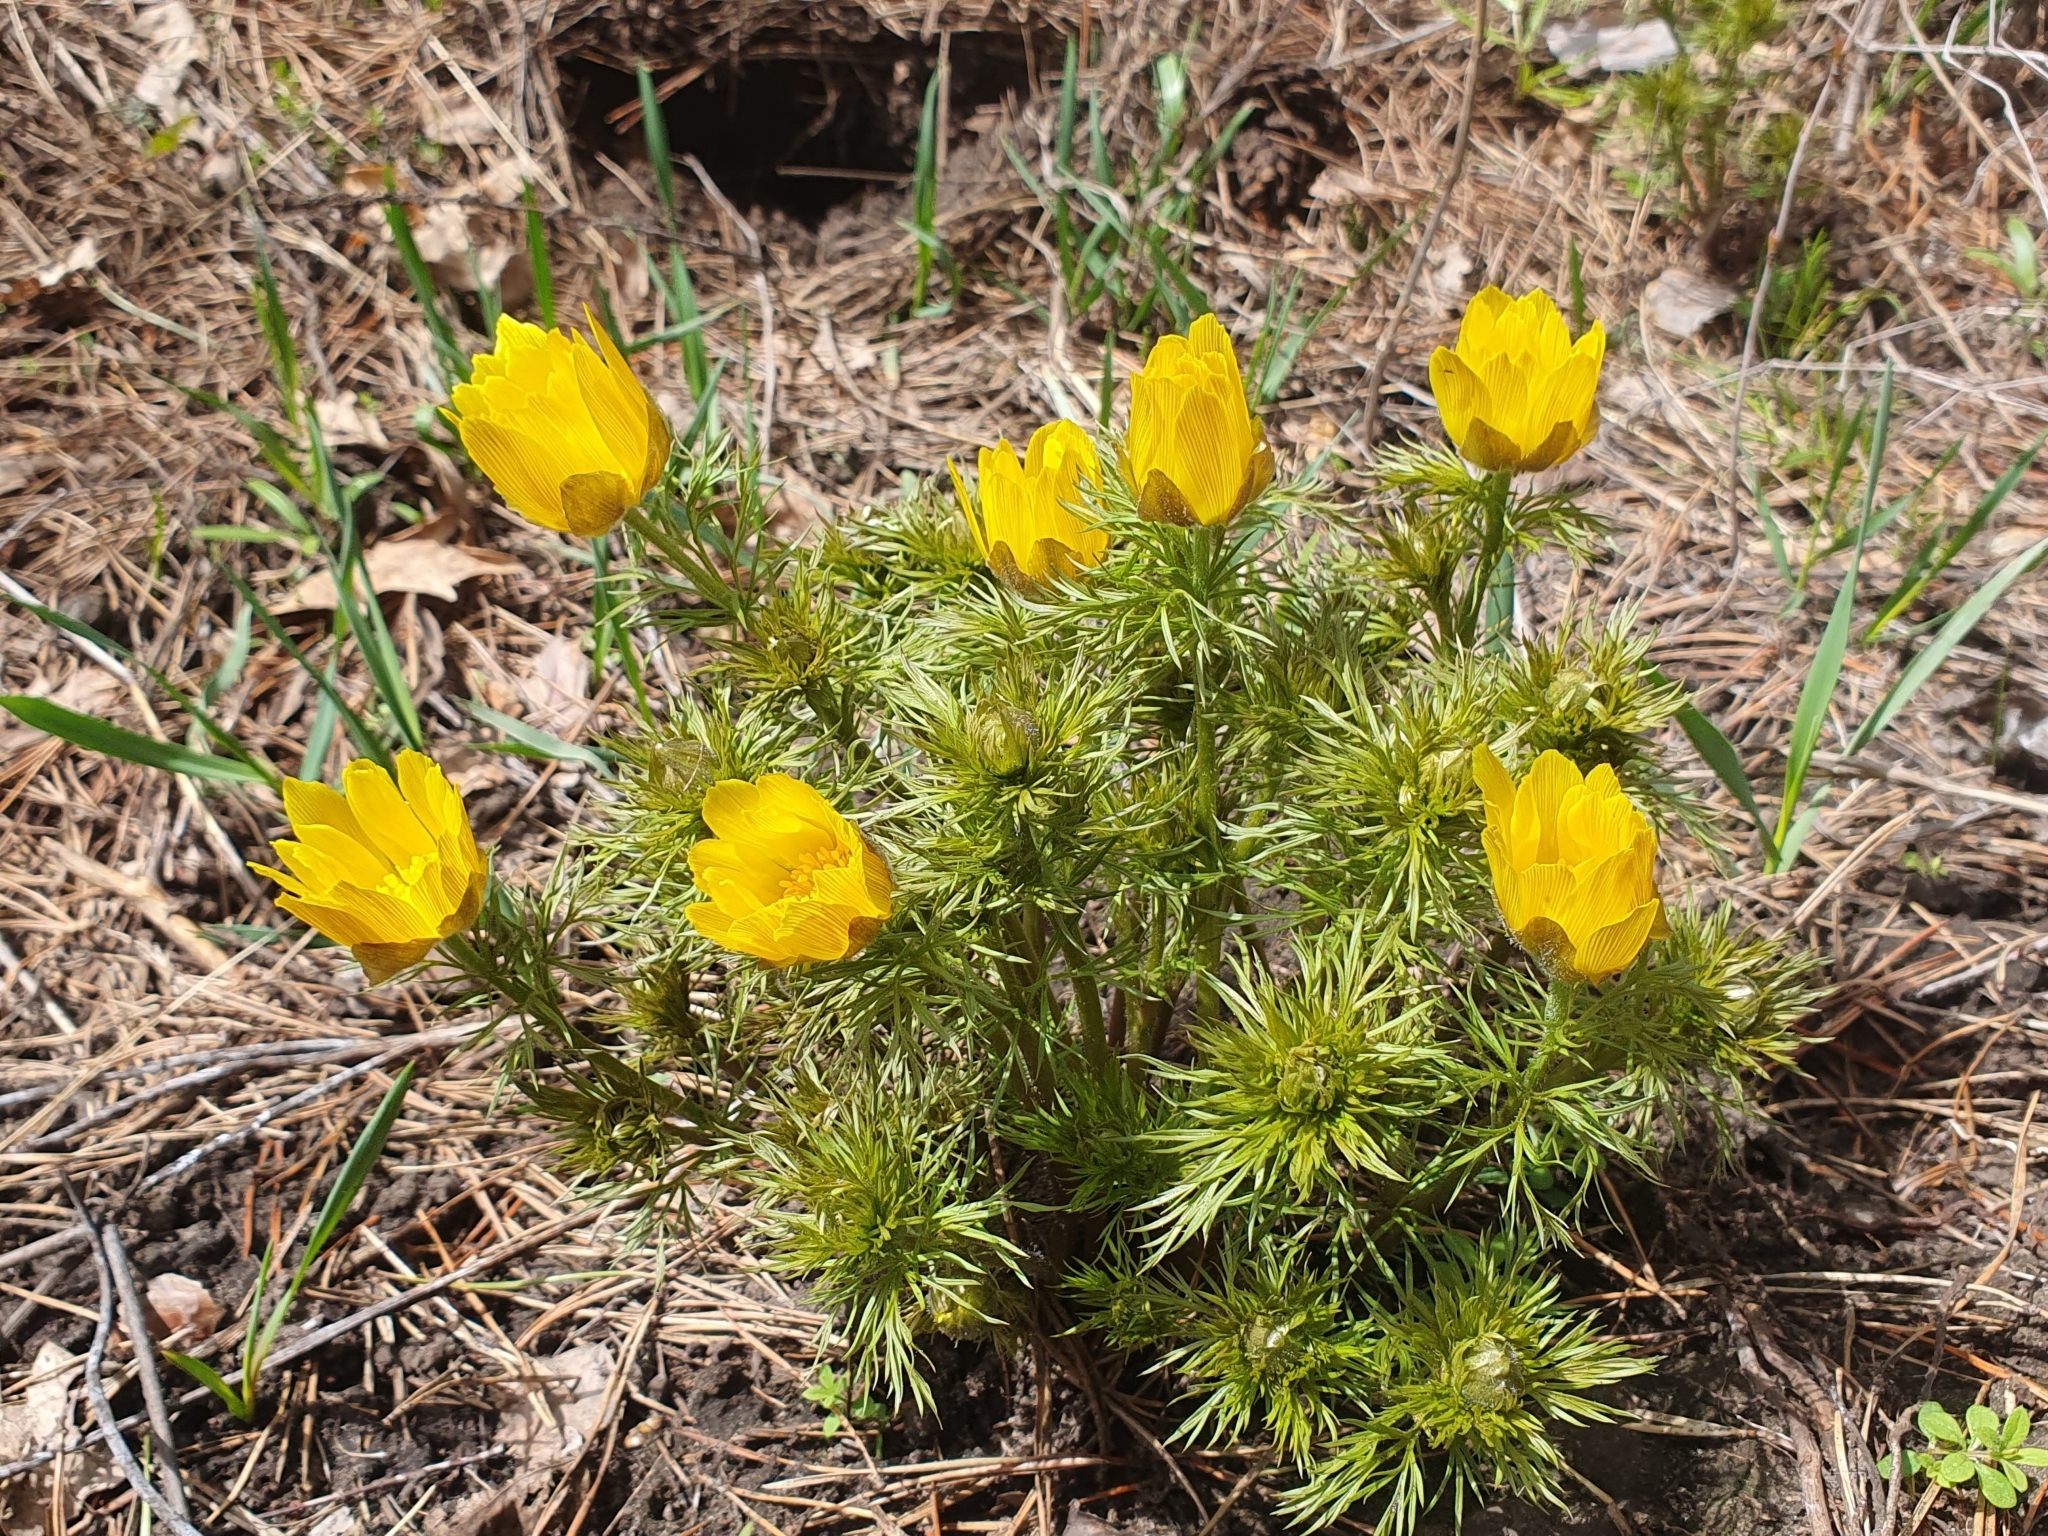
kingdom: Plantae
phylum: Tracheophyta
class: Magnoliopsida
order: Ranunculales
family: Ranunculaceae
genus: Adonis
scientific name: Adonis vernalis
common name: Yellow pheasants-eye
